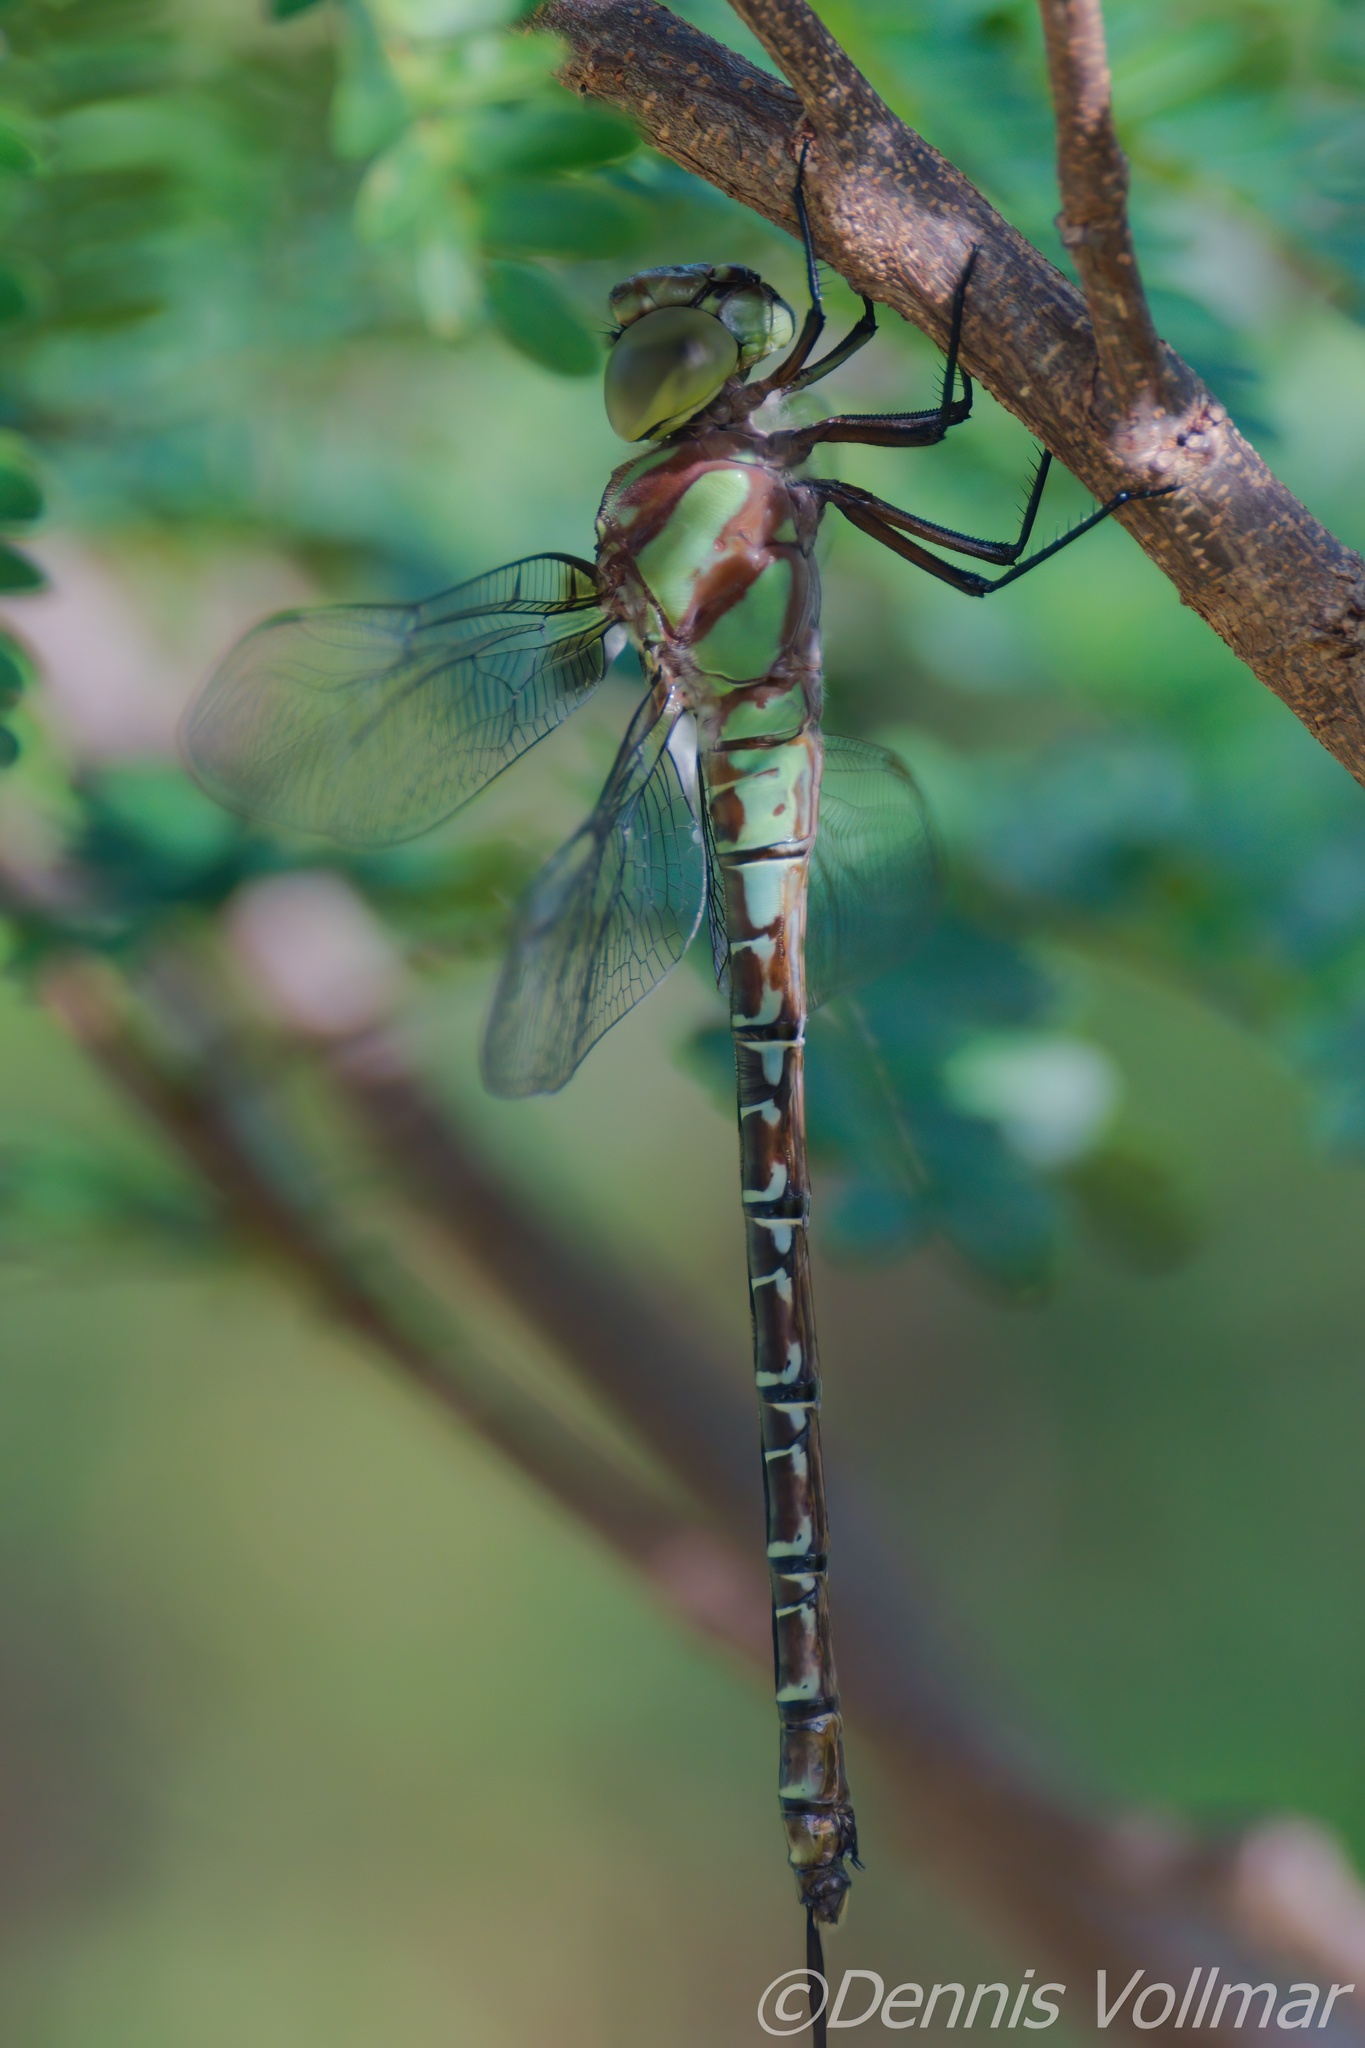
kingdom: Animalia
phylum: Arthropoda
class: Insecta
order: Odonata
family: Aeshnidae
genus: Coryphaeschna
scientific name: Coryphaeschna ingens
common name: Regal darner
